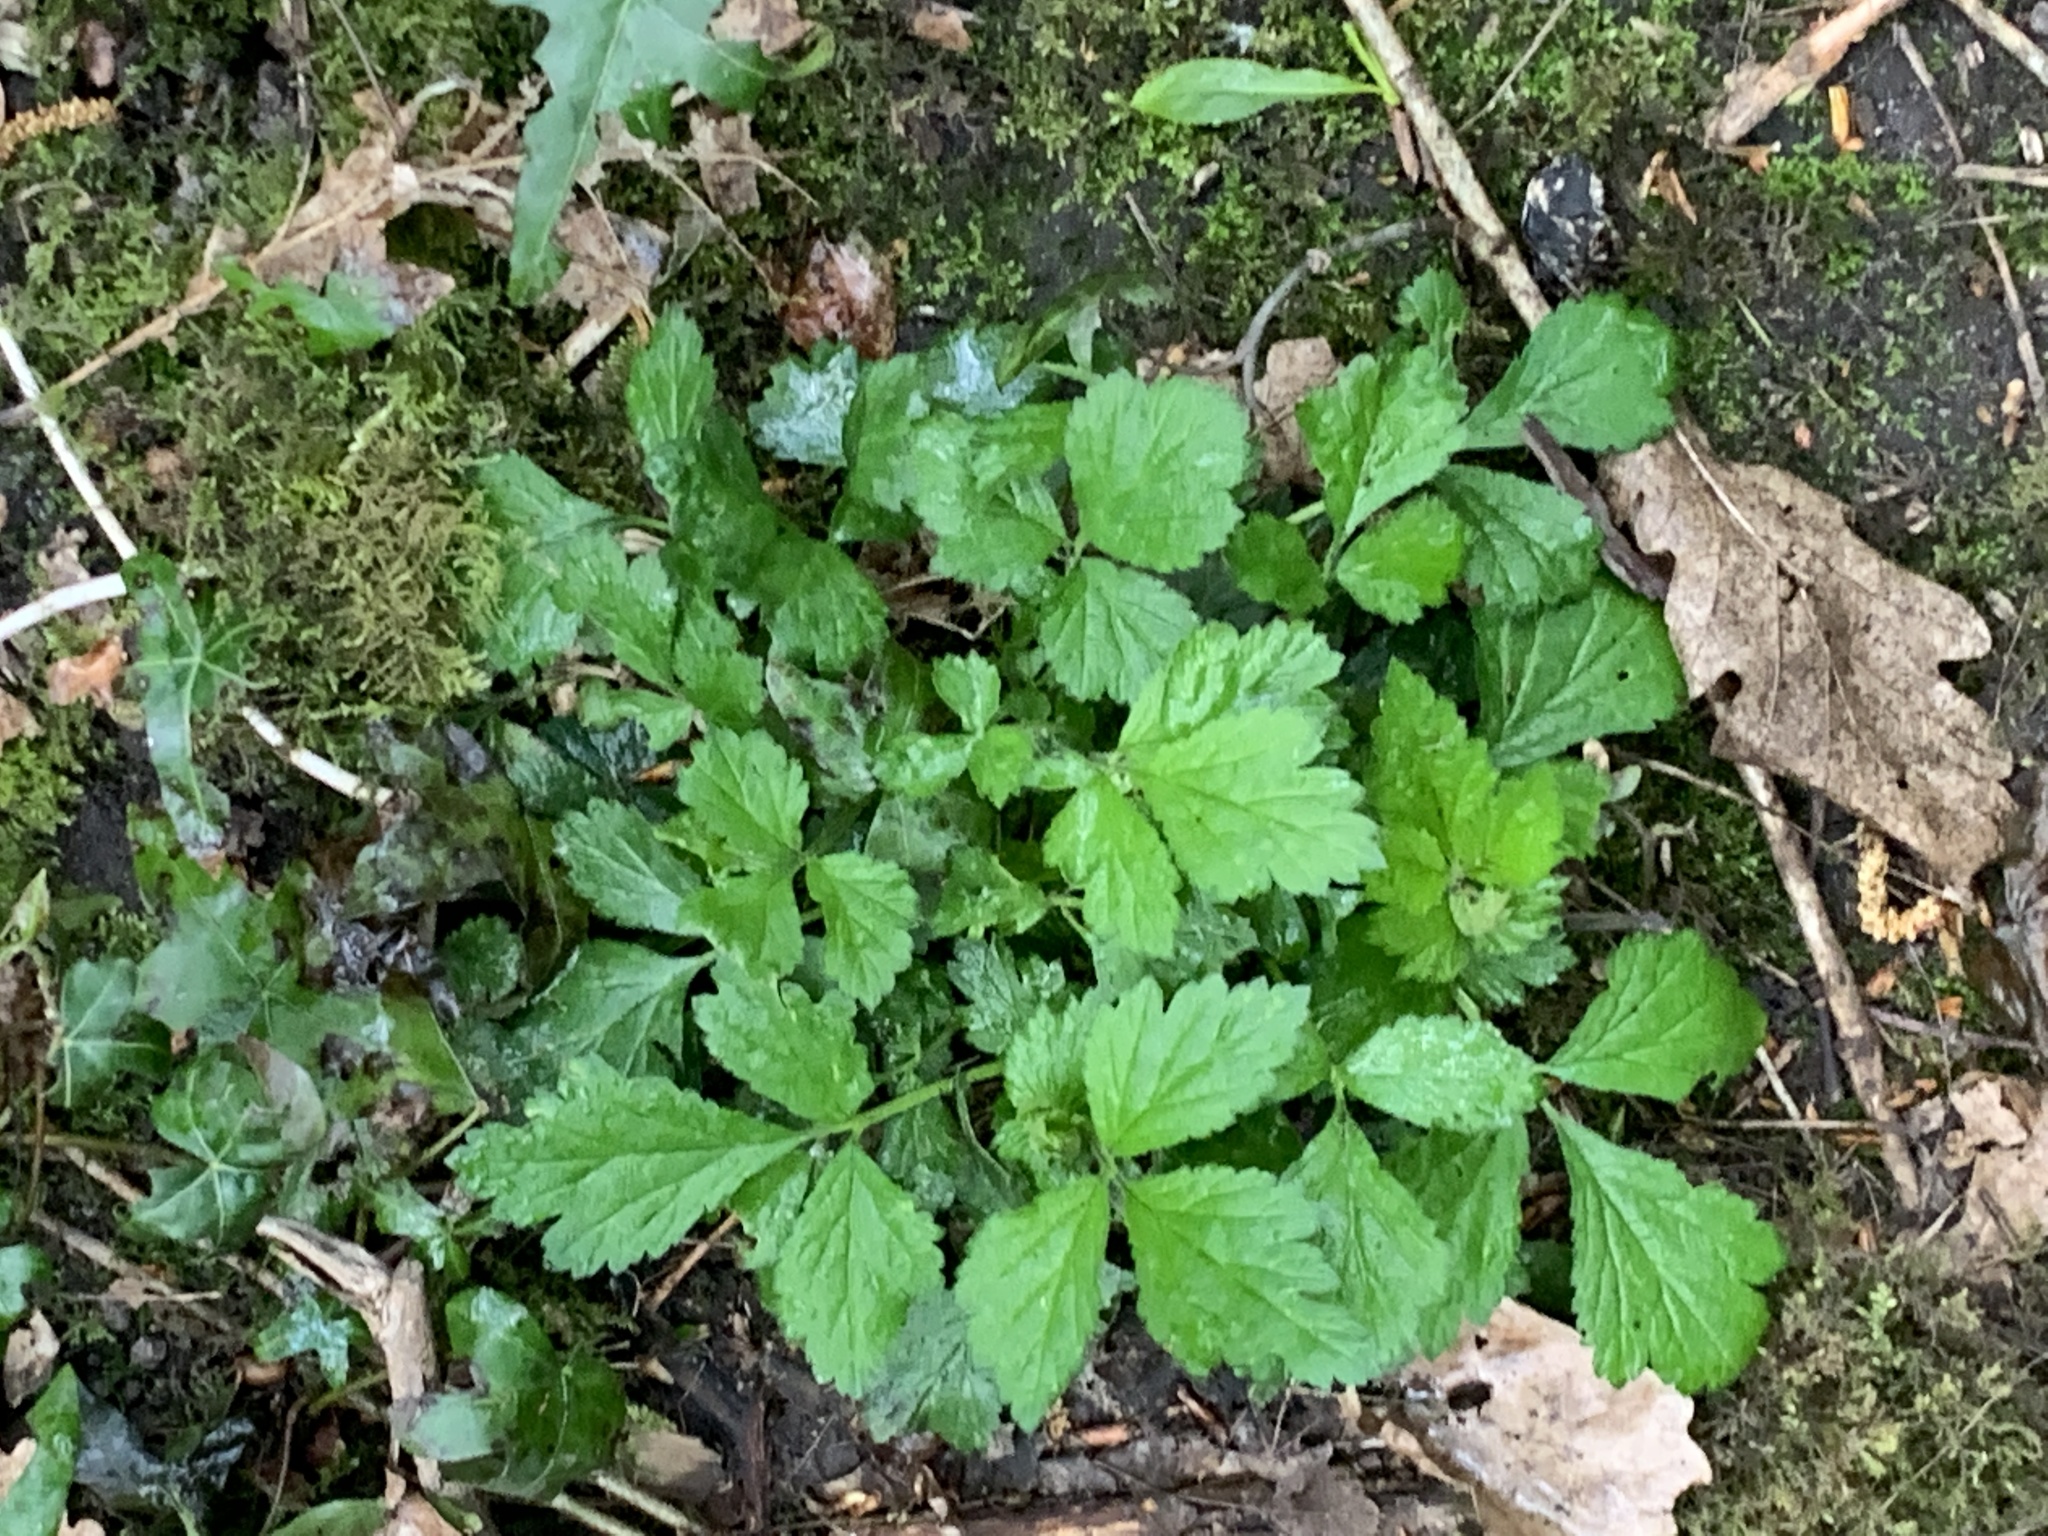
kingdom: Plantae
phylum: Tracheophyta
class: Magnoliopsida
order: Rosales
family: Rosaceae
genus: Geum
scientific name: Geum urbanum
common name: Wood avens
